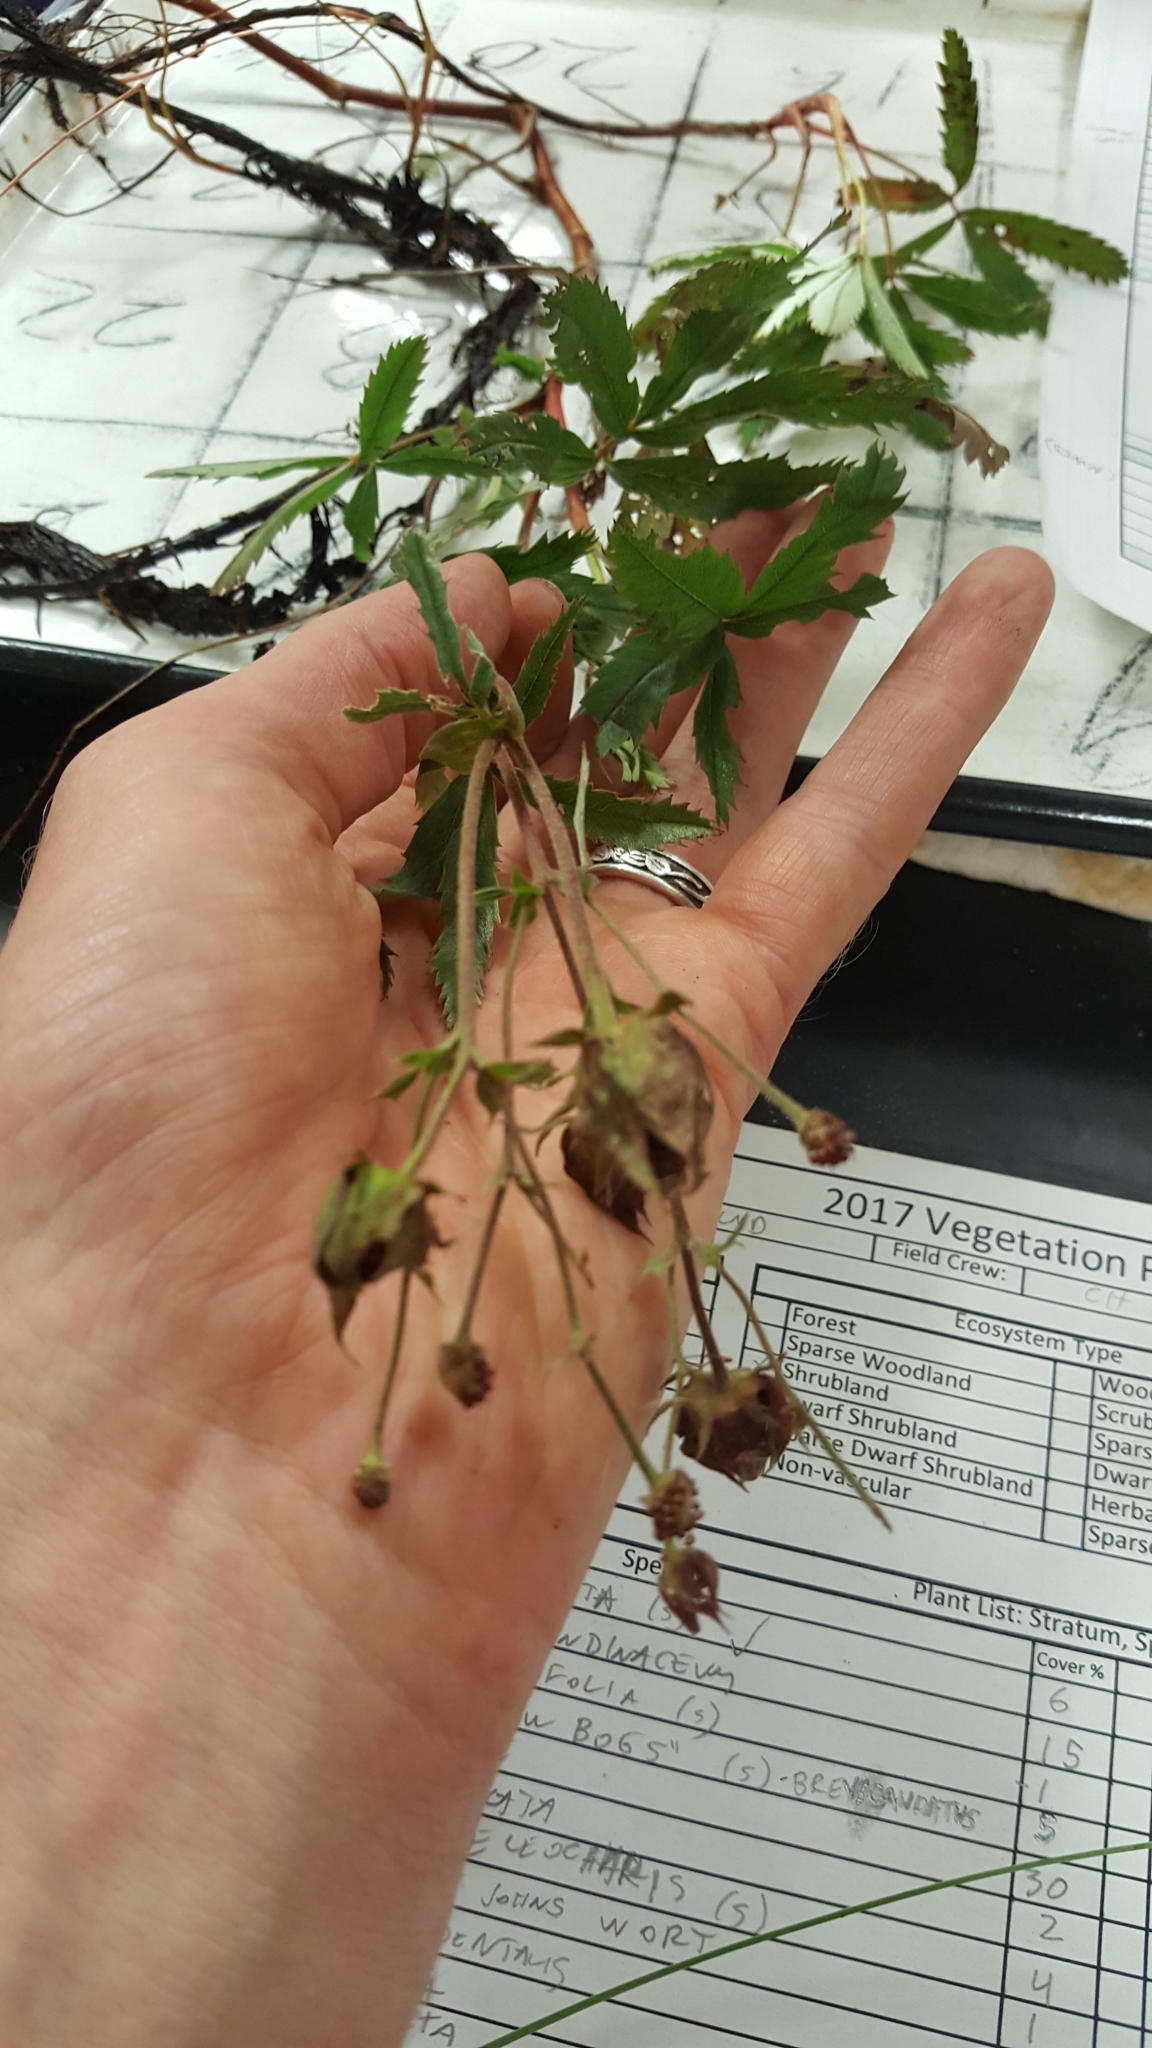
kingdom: Plantae
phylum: Tracheophyta
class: Magnoliopsida
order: Rosales
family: Rosaceae
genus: Comarum
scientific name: Comarum palustre
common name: Marsh cinquefoil
